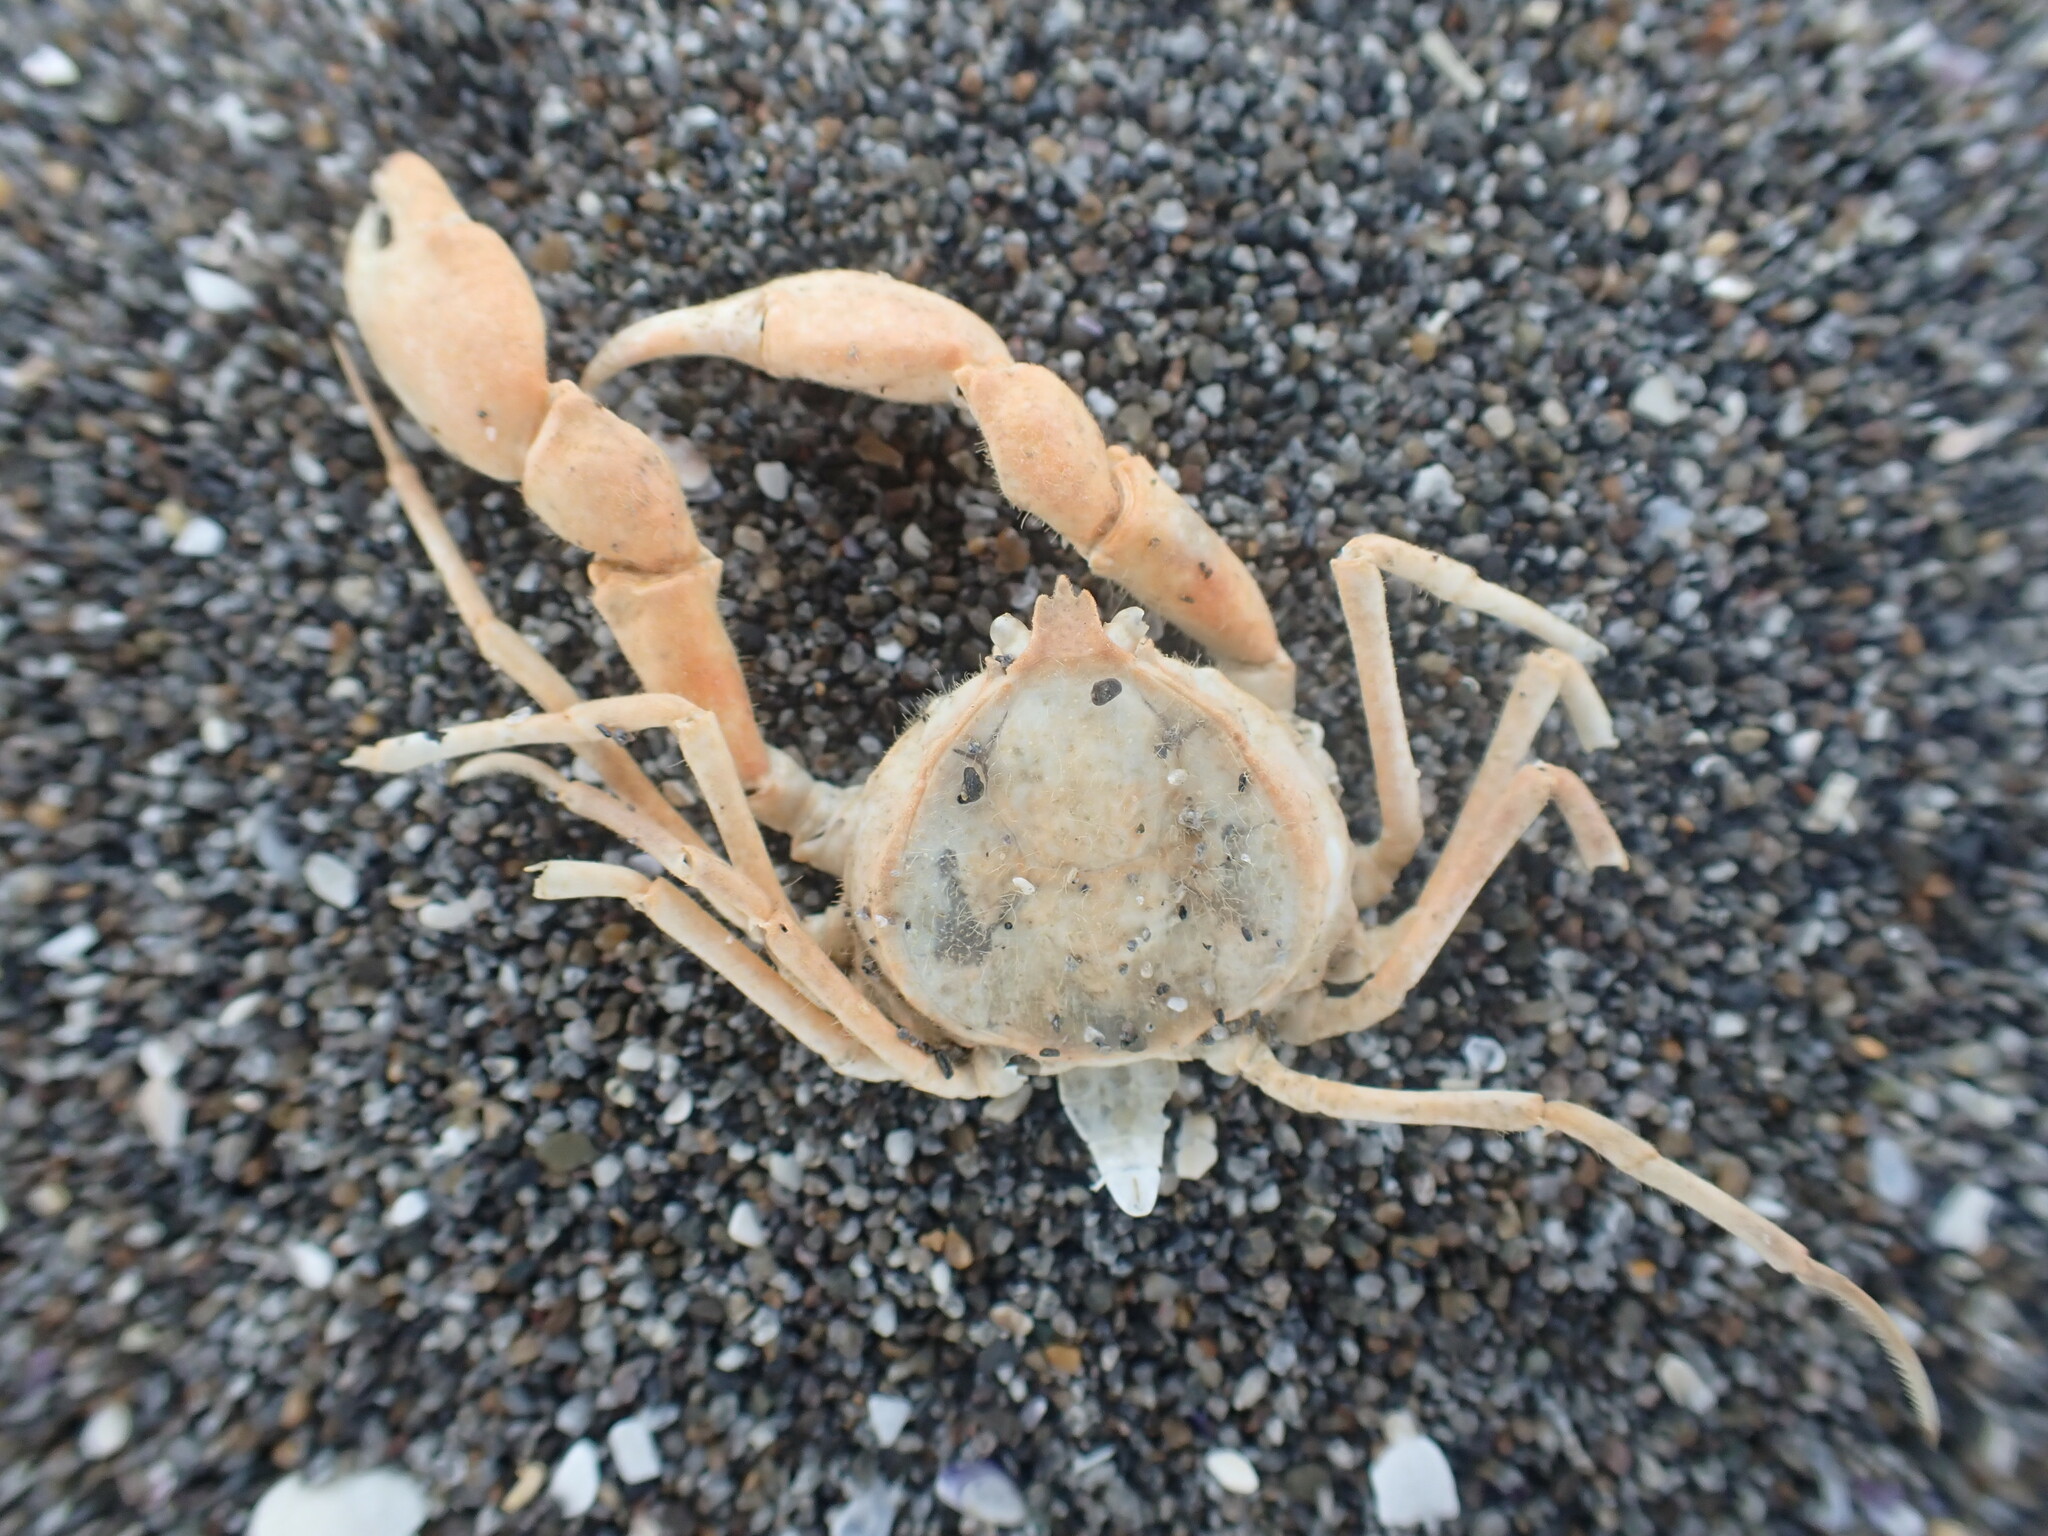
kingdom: Animalia
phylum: Arthropoda
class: Malacostraca
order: Decapoda
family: Hymenosomatidae
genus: Halicarcinus
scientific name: Halicarcinus whitei
